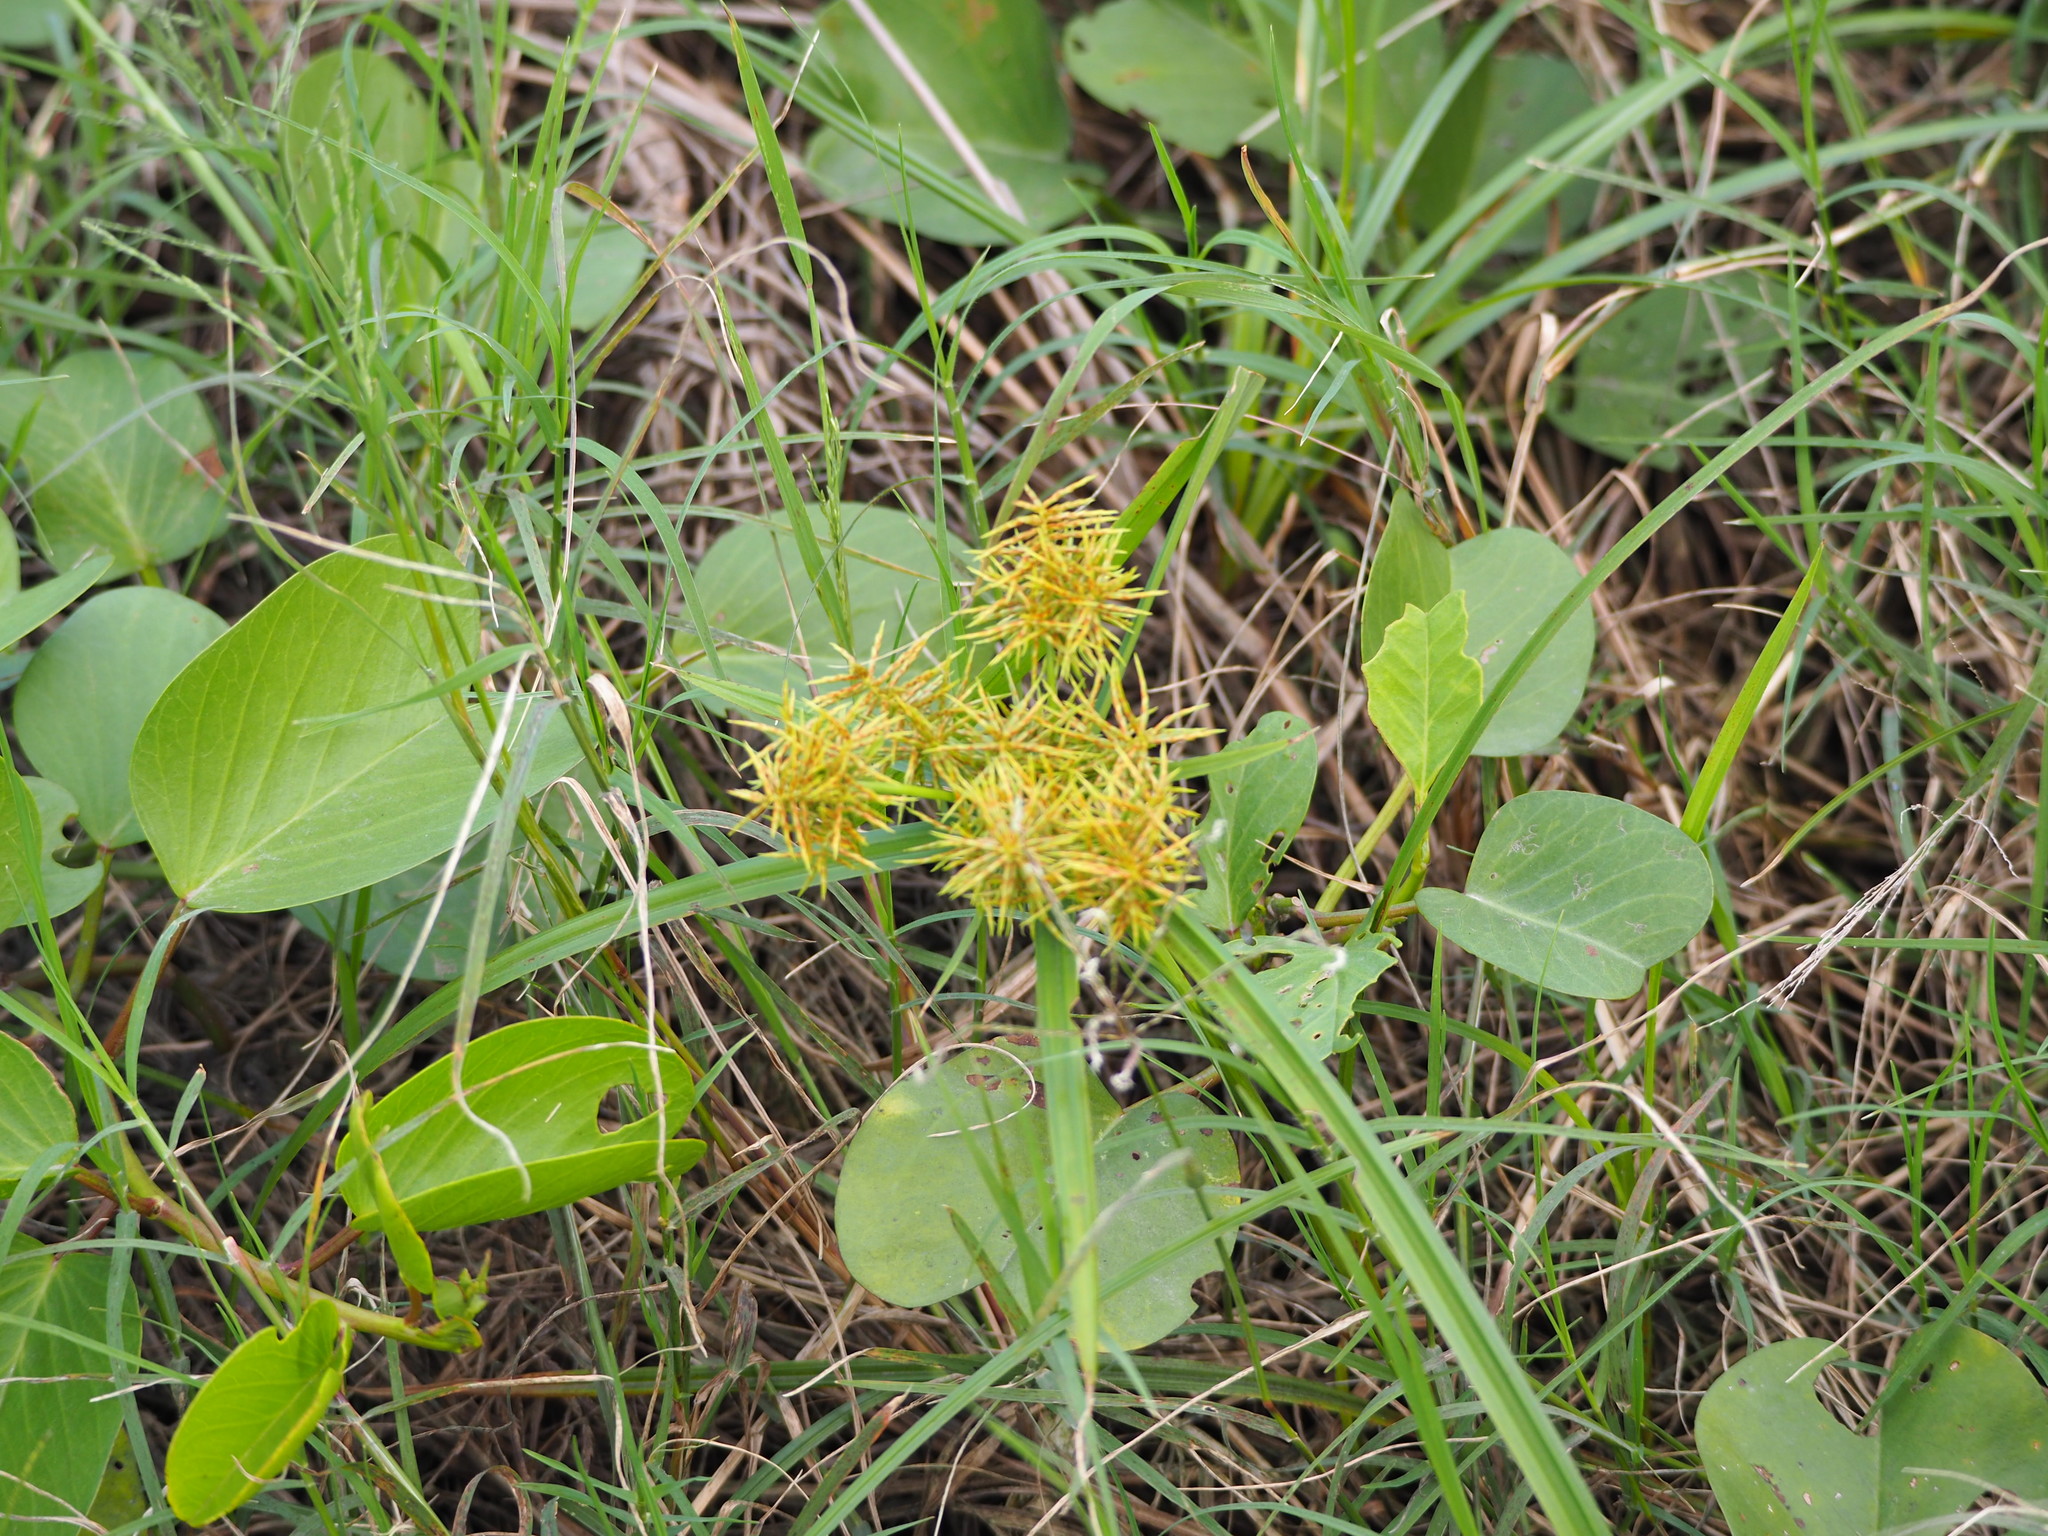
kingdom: Plantae
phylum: Tracheophyta
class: Liliopsida
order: Poales
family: Cyperaceae
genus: Cyperus
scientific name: Cyperus odoratus
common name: Fragrant flatsedge
